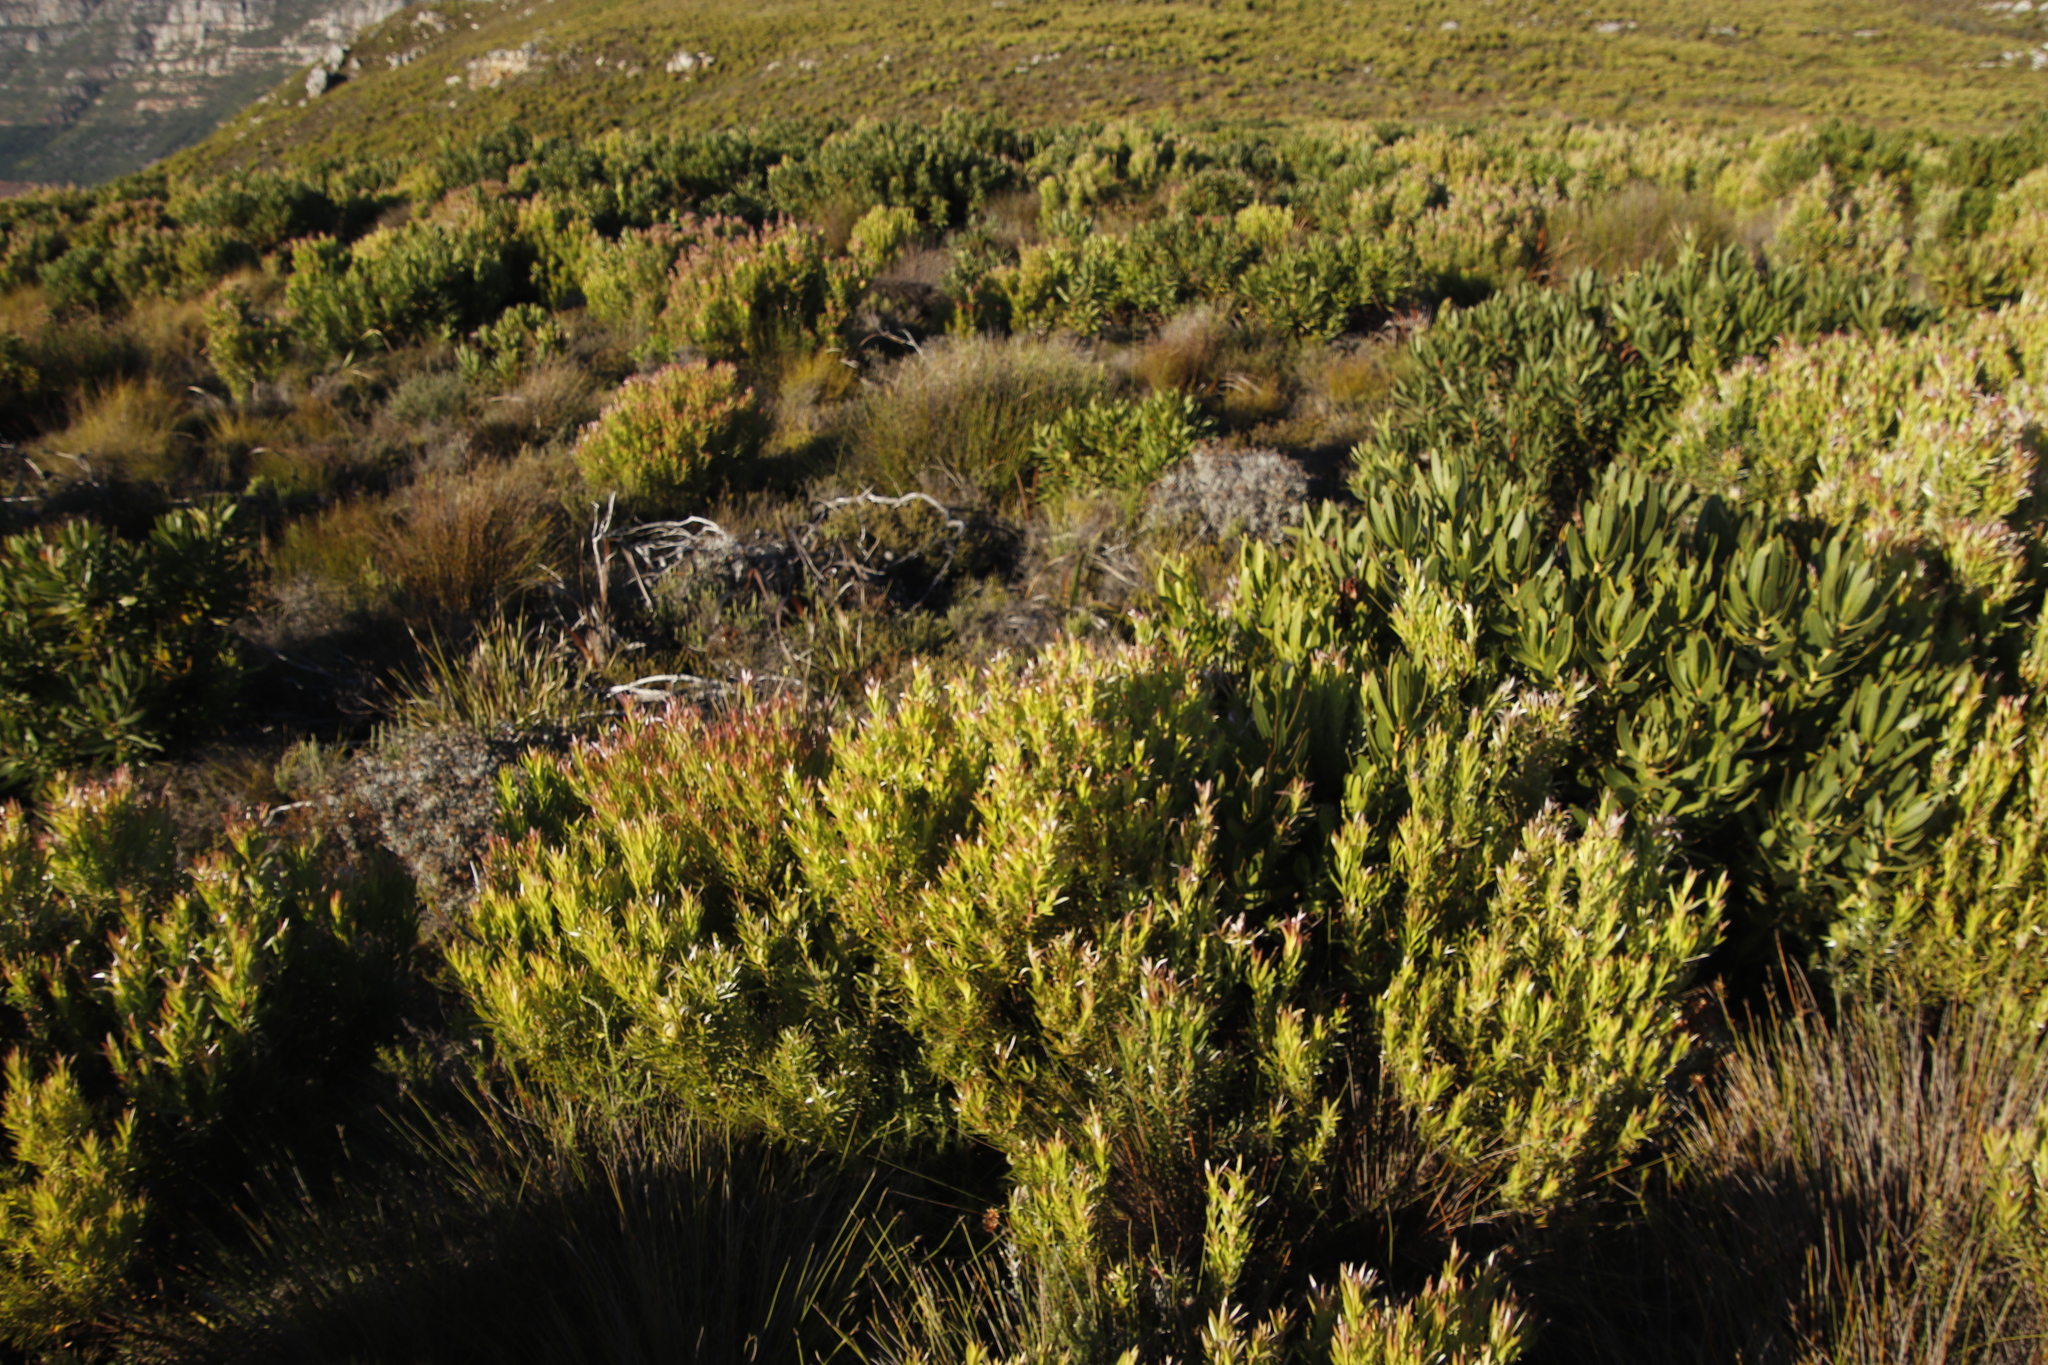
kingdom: Plantae
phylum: Tracheophyta
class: Magnoliopsida
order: Proteales
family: Proteaceae
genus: Leucadendron
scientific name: Leucadendron xanthoconus
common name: Sickle-leaf conebush
